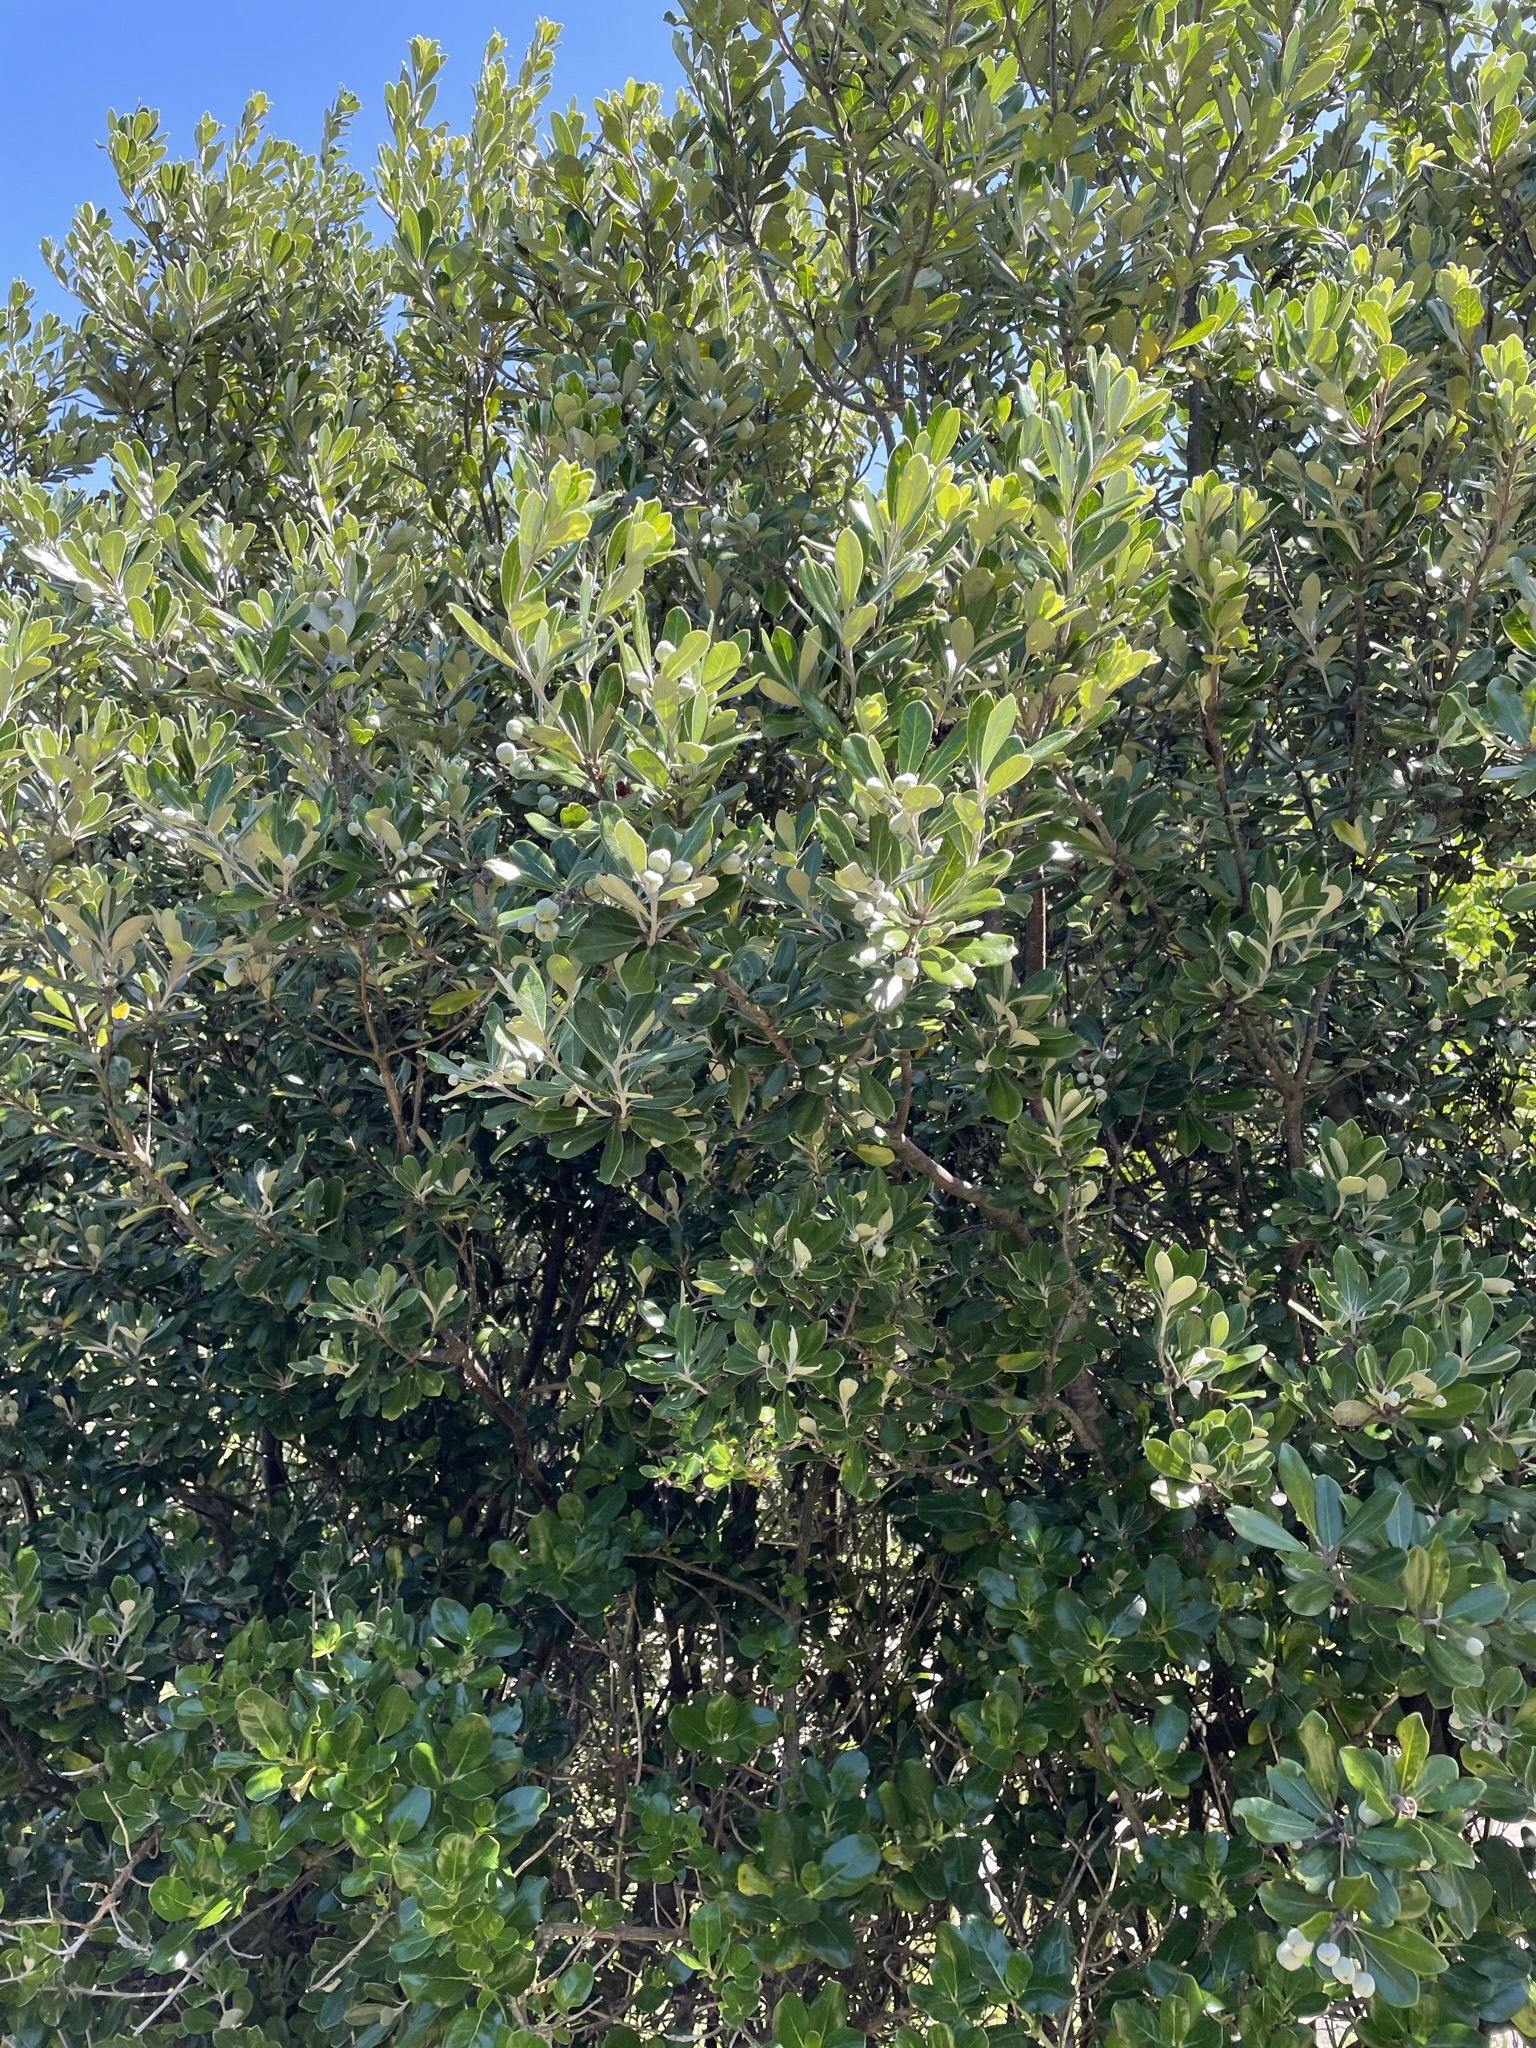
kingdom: Plantae
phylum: Tracheophyta
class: Magnoliopsida
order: Apiales
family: Pittosporaceae
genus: Pittosporum
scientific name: Pittosporum crassifolium
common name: Karo
